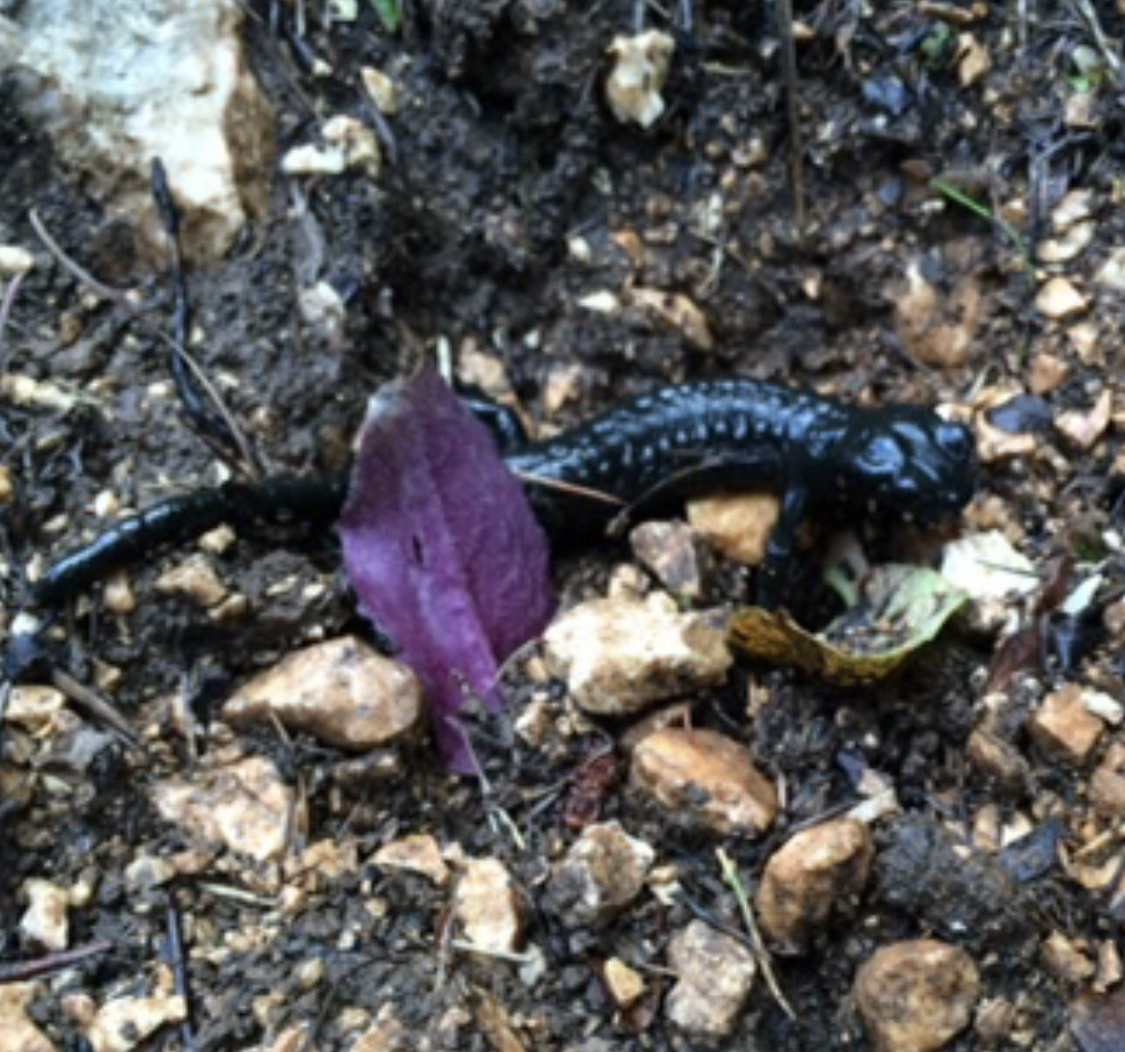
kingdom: Animalia
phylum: Chordata
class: Amphibia
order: Caudata
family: Salamandridae
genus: Salamandra
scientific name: Salamandra atra
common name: Alpine salamander
